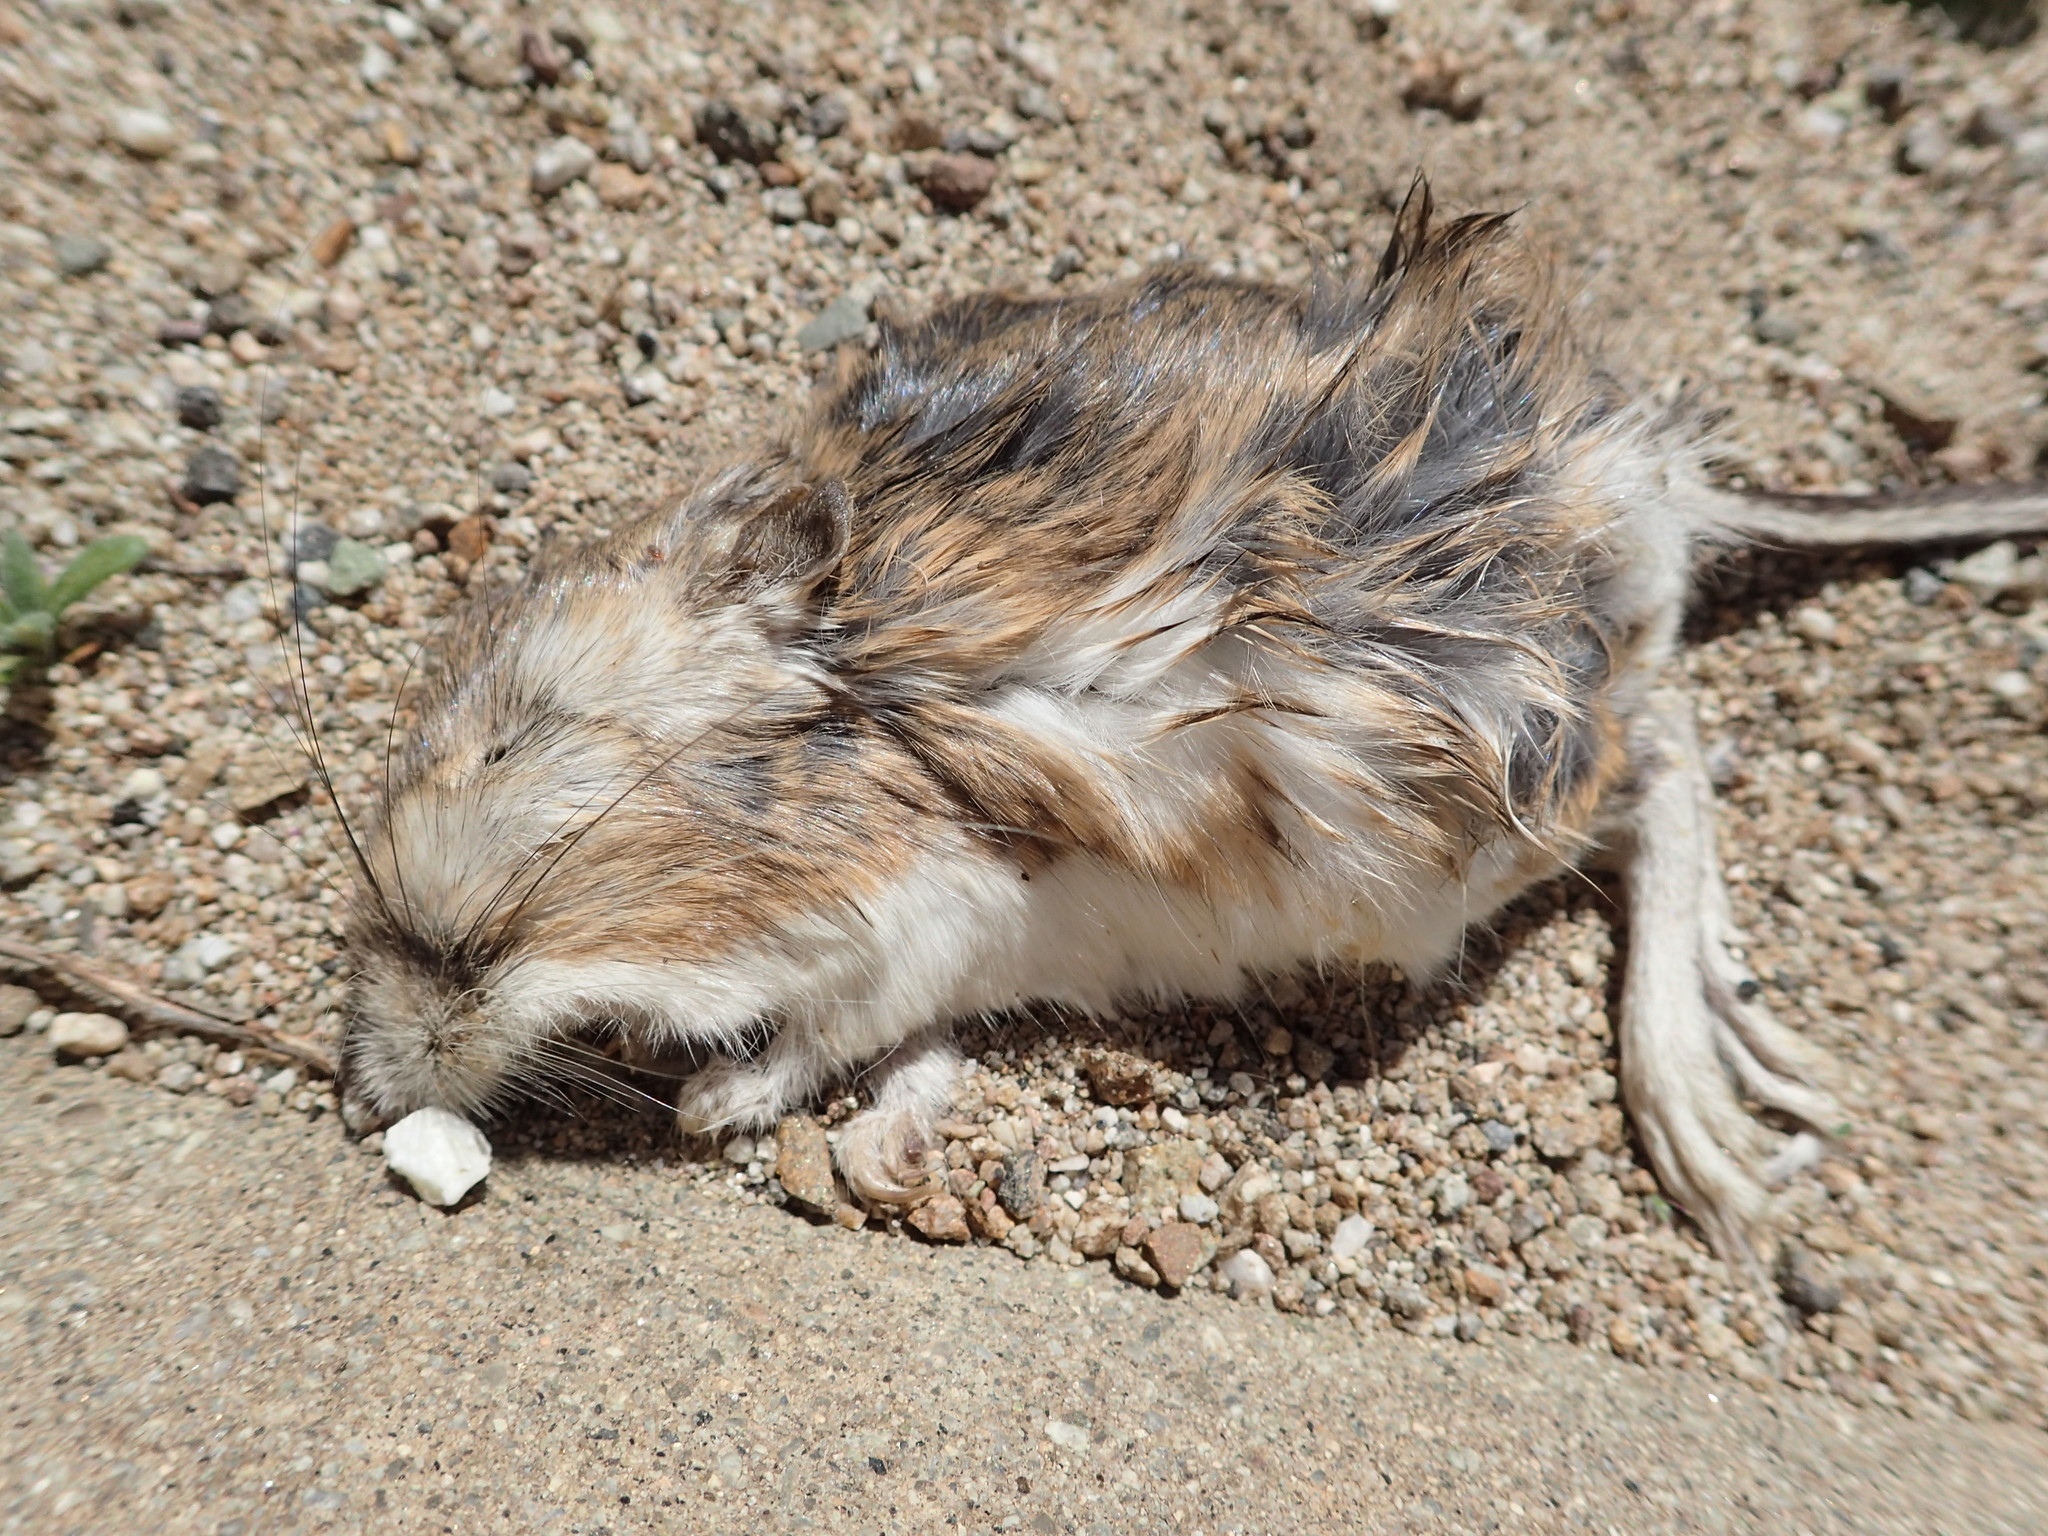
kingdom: Animalia
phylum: Chordata
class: Mammalia
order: Rodentia
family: Heteromyidae
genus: Dipodomys
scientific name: Dipodomys agilis
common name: Agile kangaroo rat
